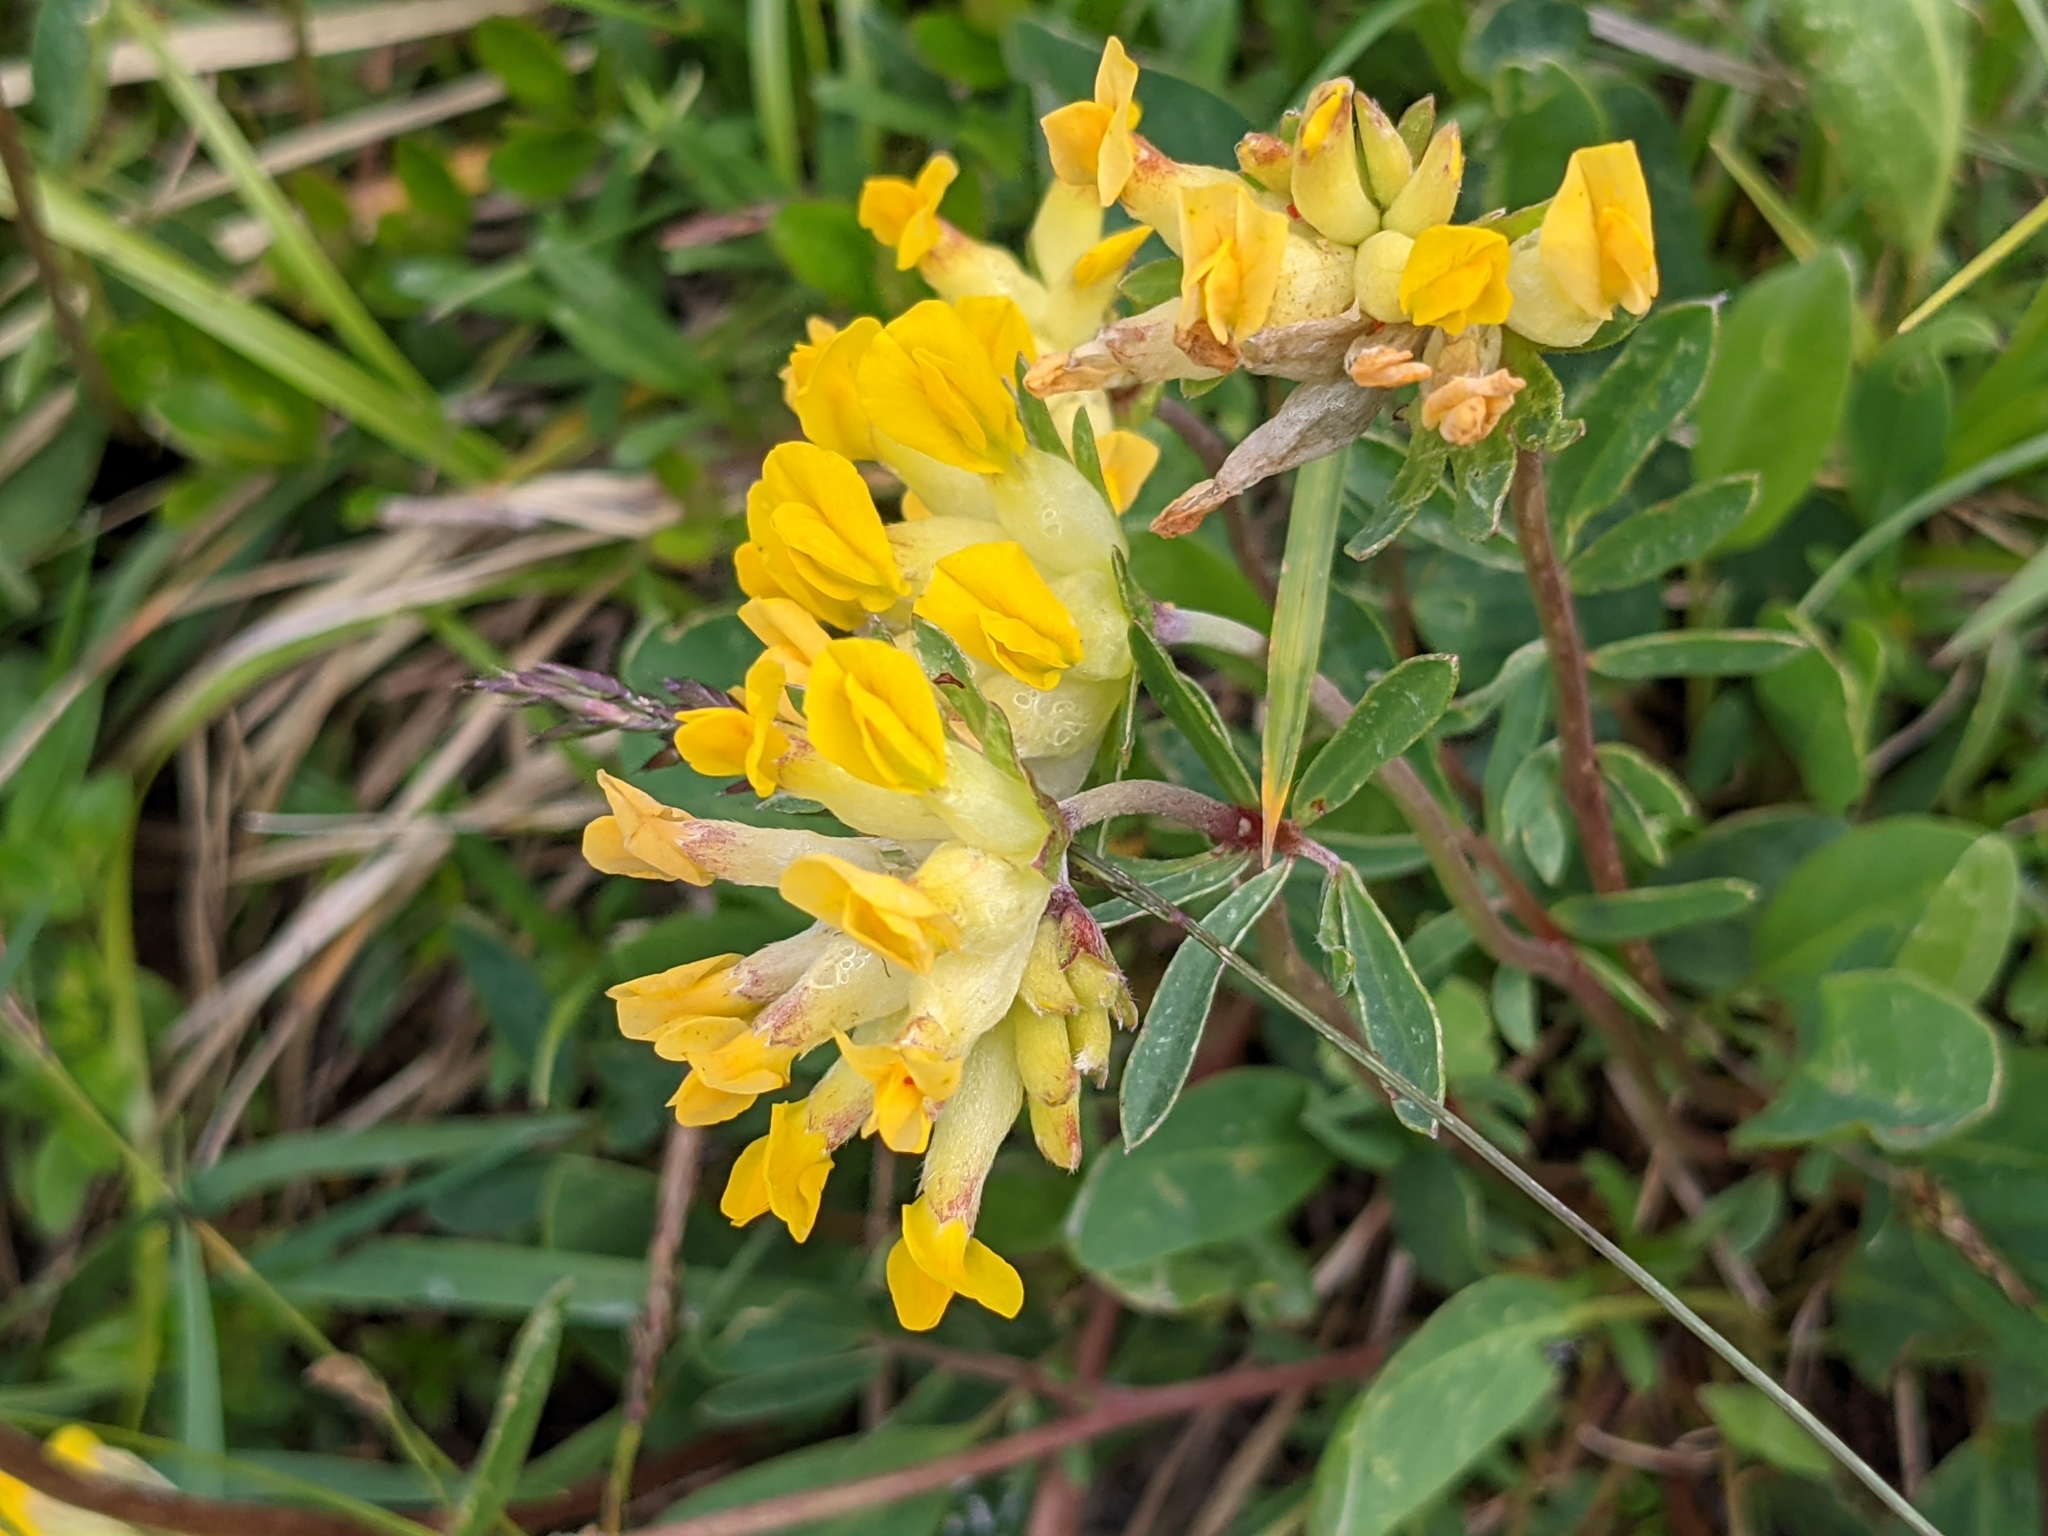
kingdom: Plantae
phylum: Tracheophyta
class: Magnoliopsida
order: Fabales
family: Fabaceae
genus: Anthyllis
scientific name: Anthyllis vulneraria
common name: Kidney vetch
